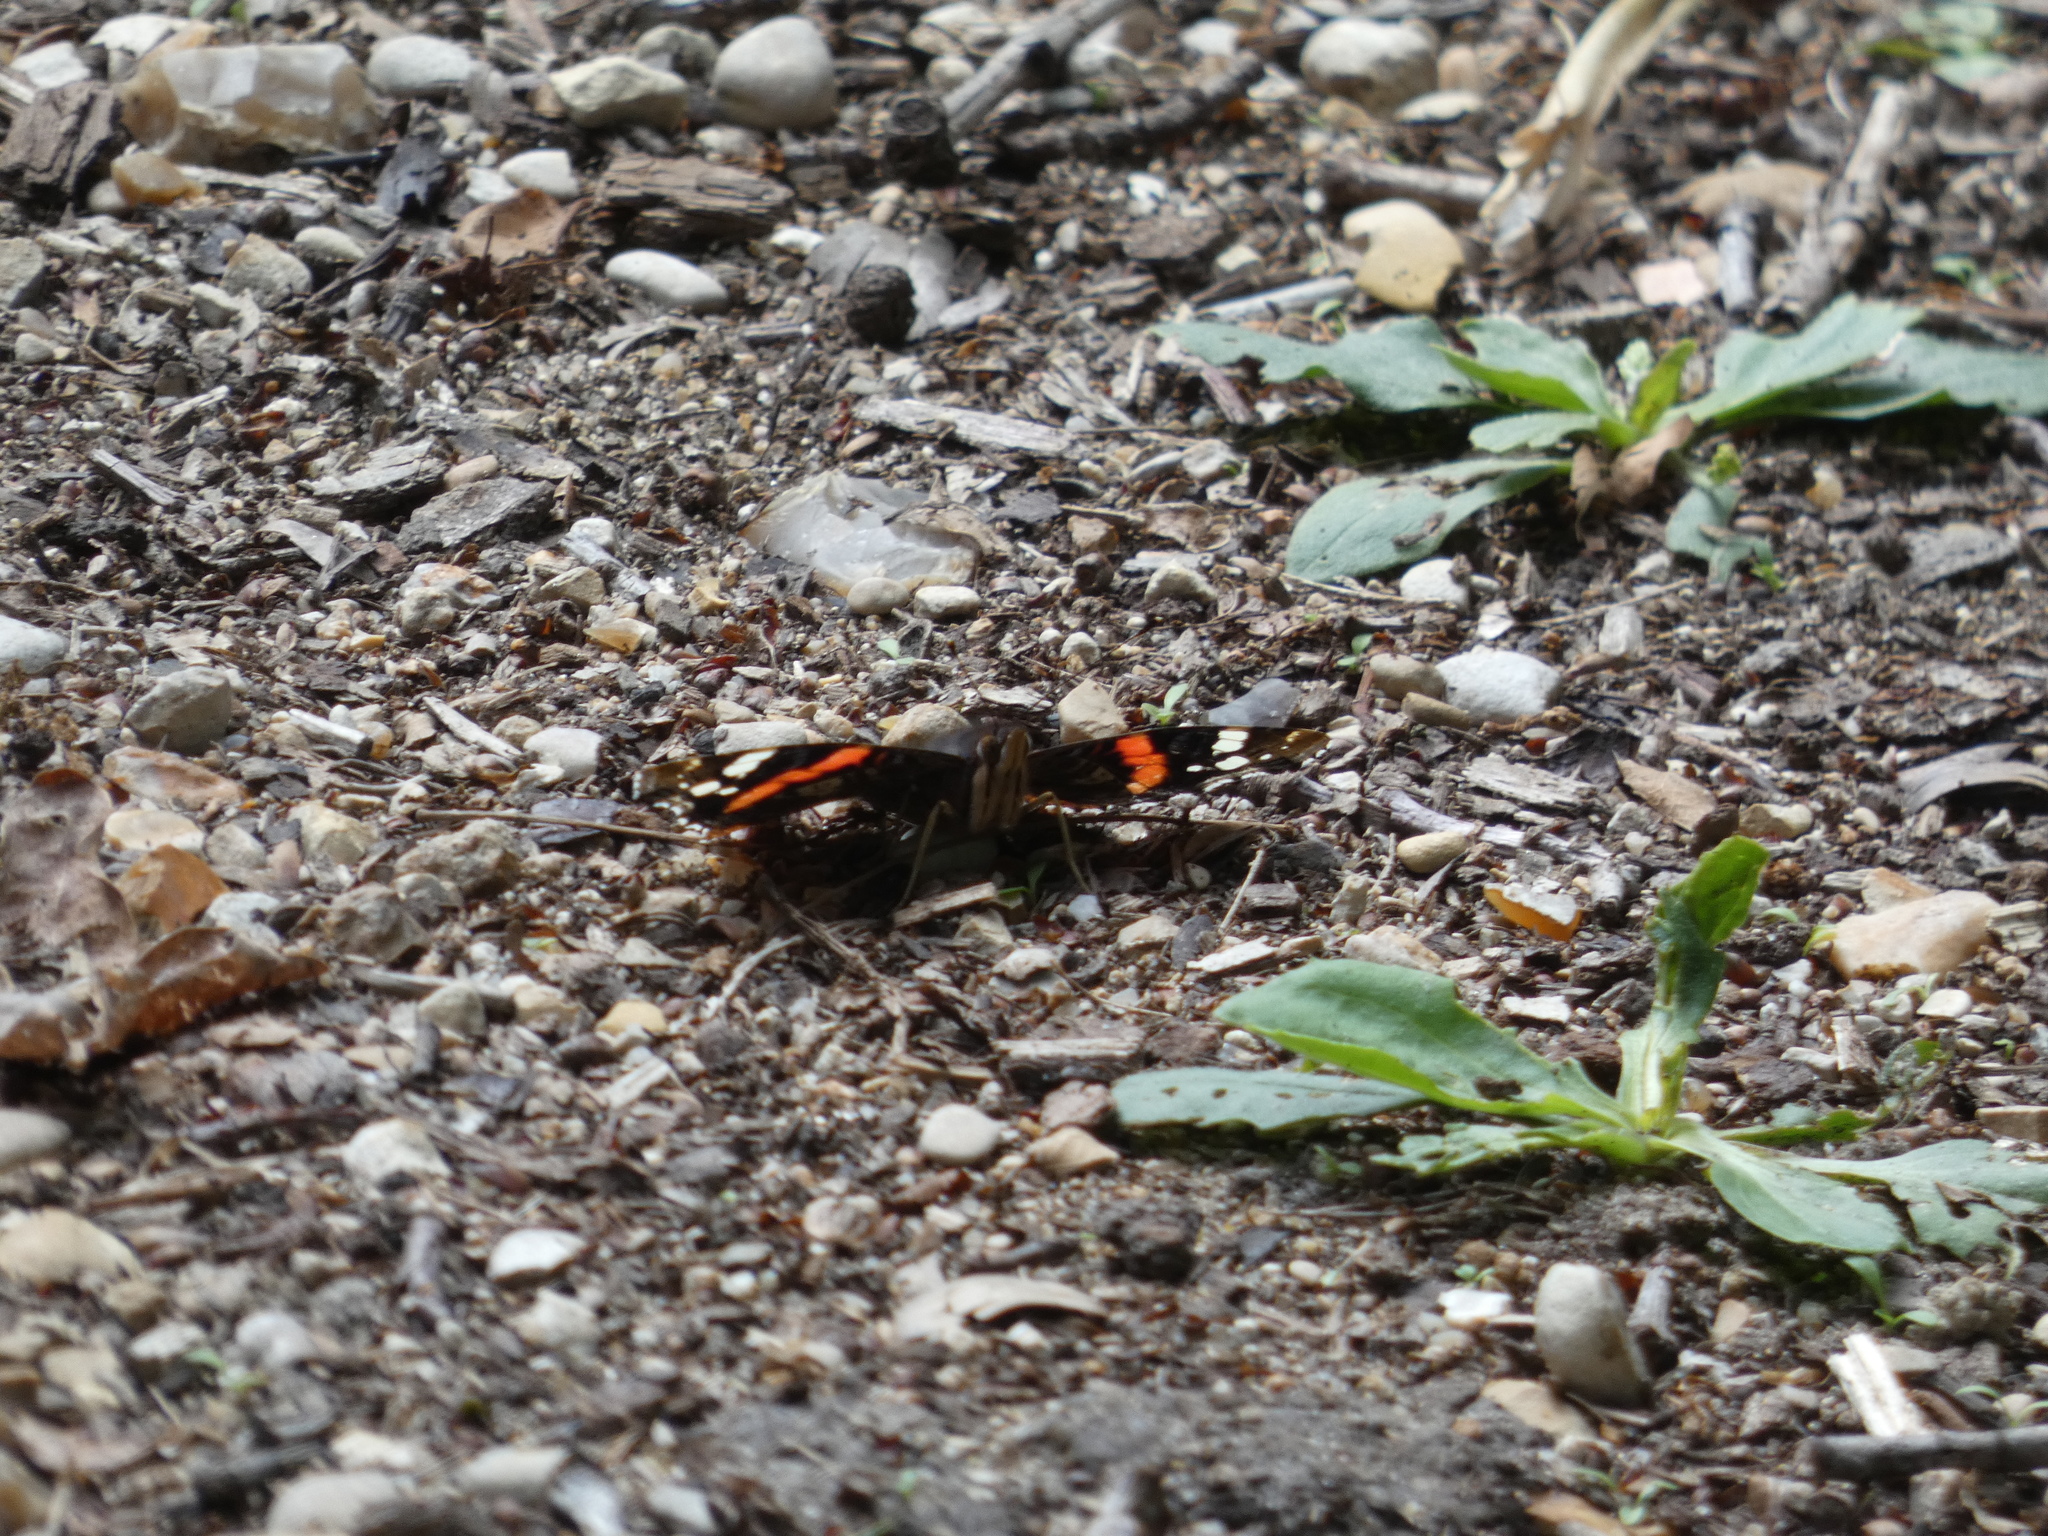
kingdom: Animalia
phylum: Arthropoda
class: Insecta
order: Lepidoptera
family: Nymphalidae
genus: Vanessa
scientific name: Vanessa atalanta
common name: Red admiral
